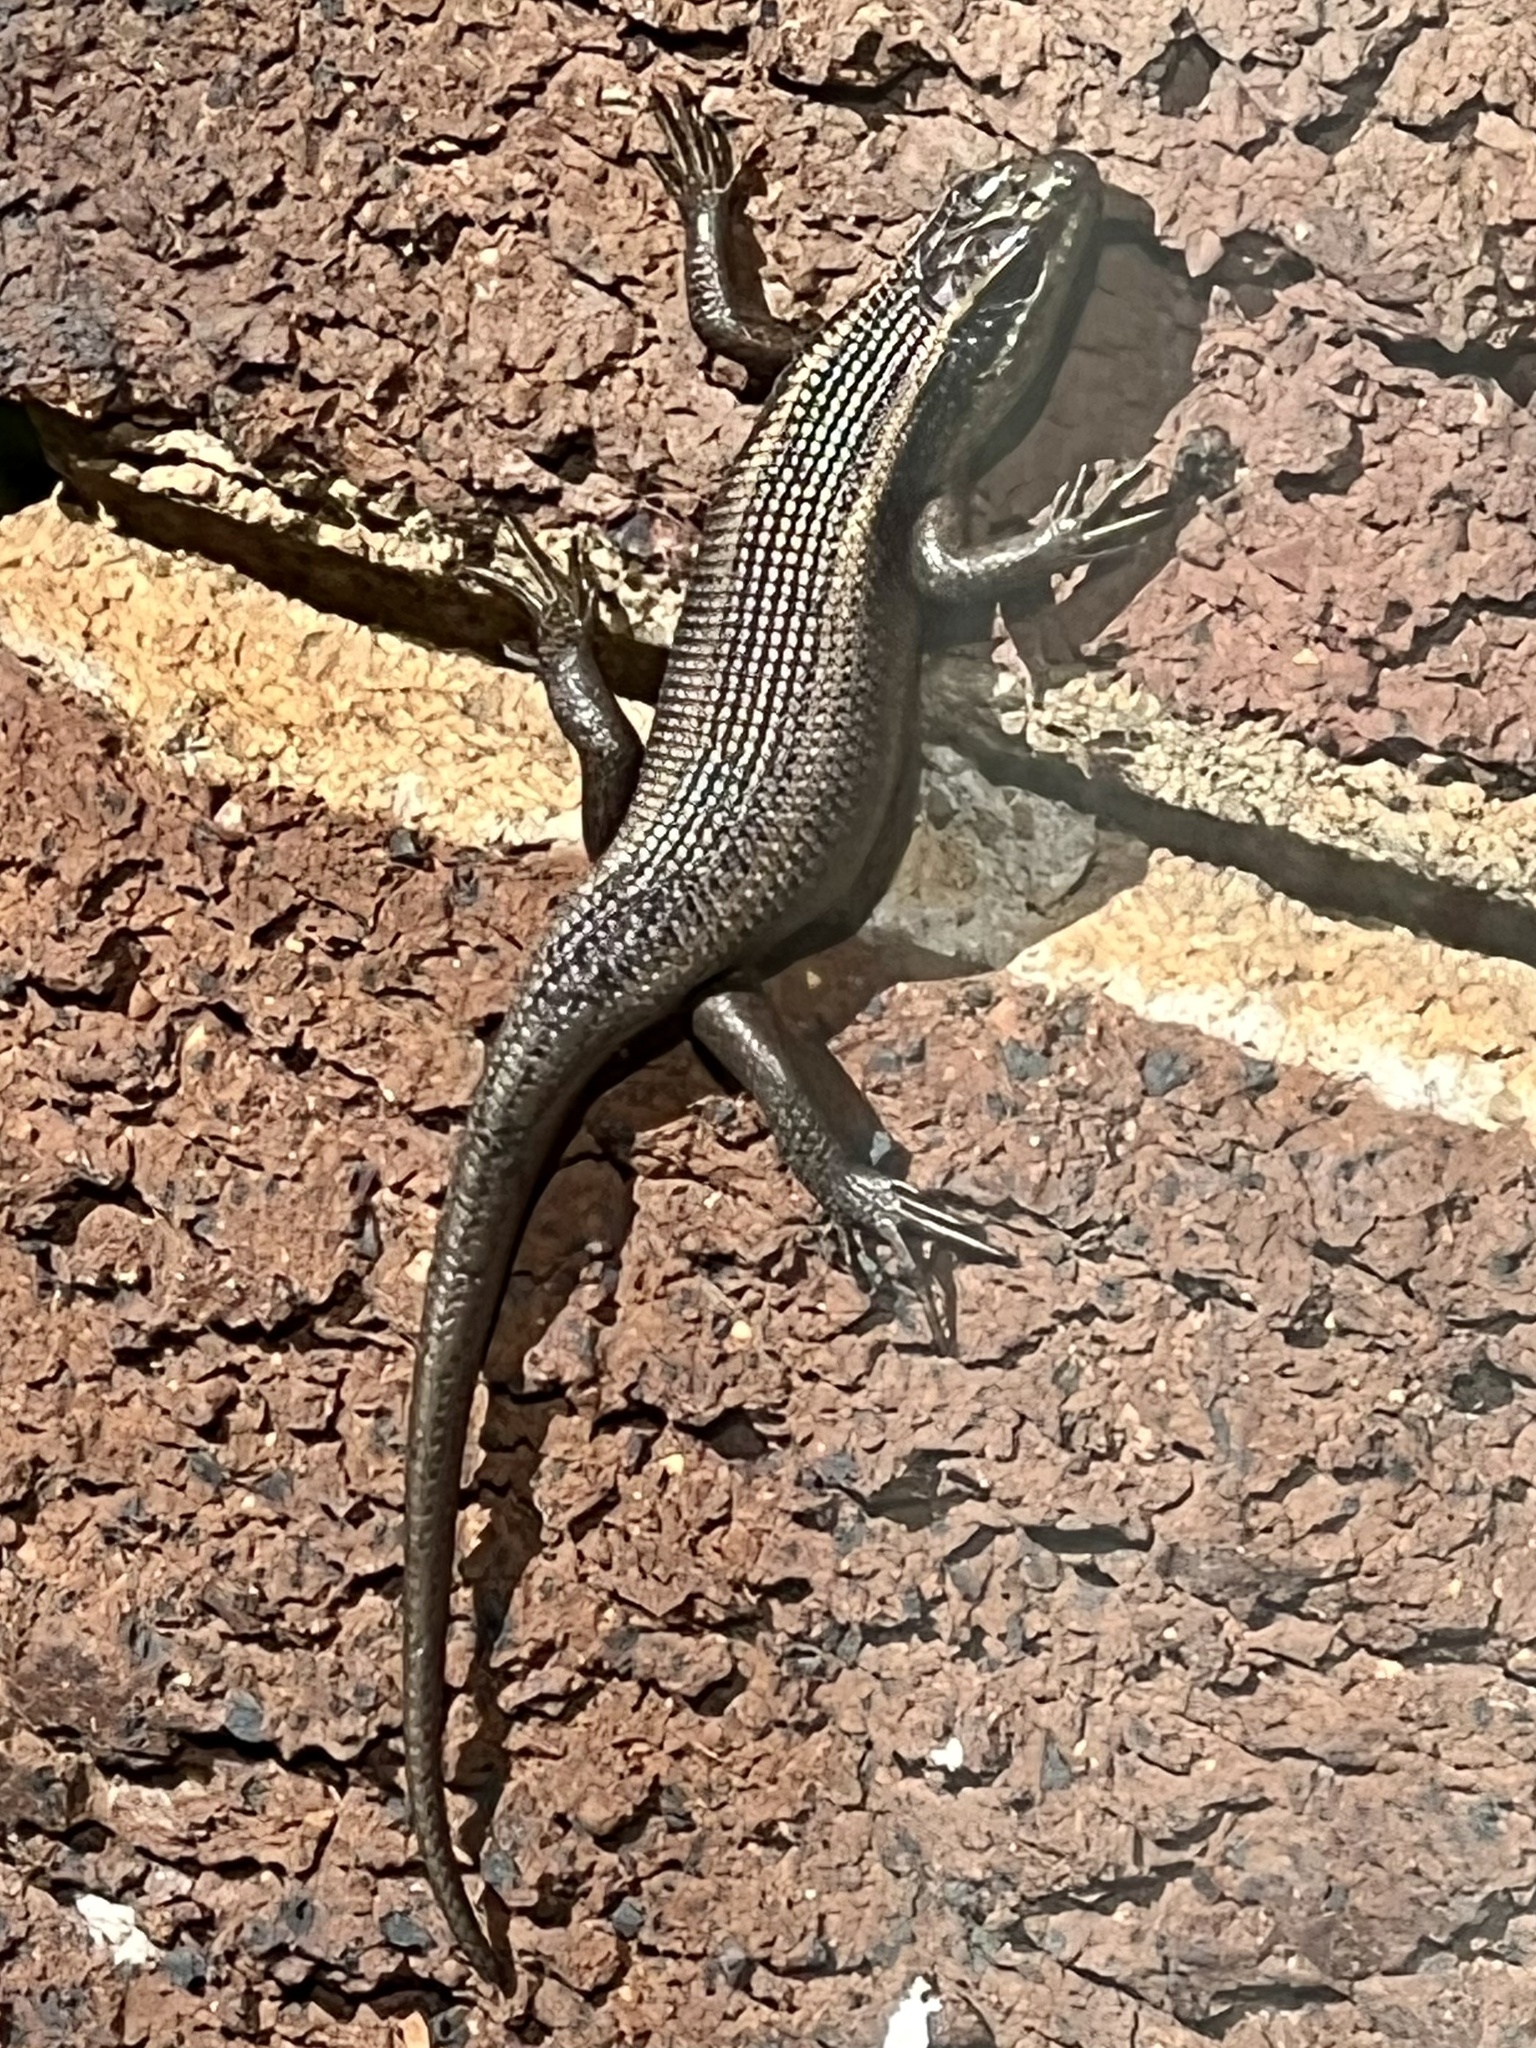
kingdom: Animalia
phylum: Chordata
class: Squamata
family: Scincidae
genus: Trachylepis
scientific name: Trachylepis punctatissima
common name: Montane speckled skink
